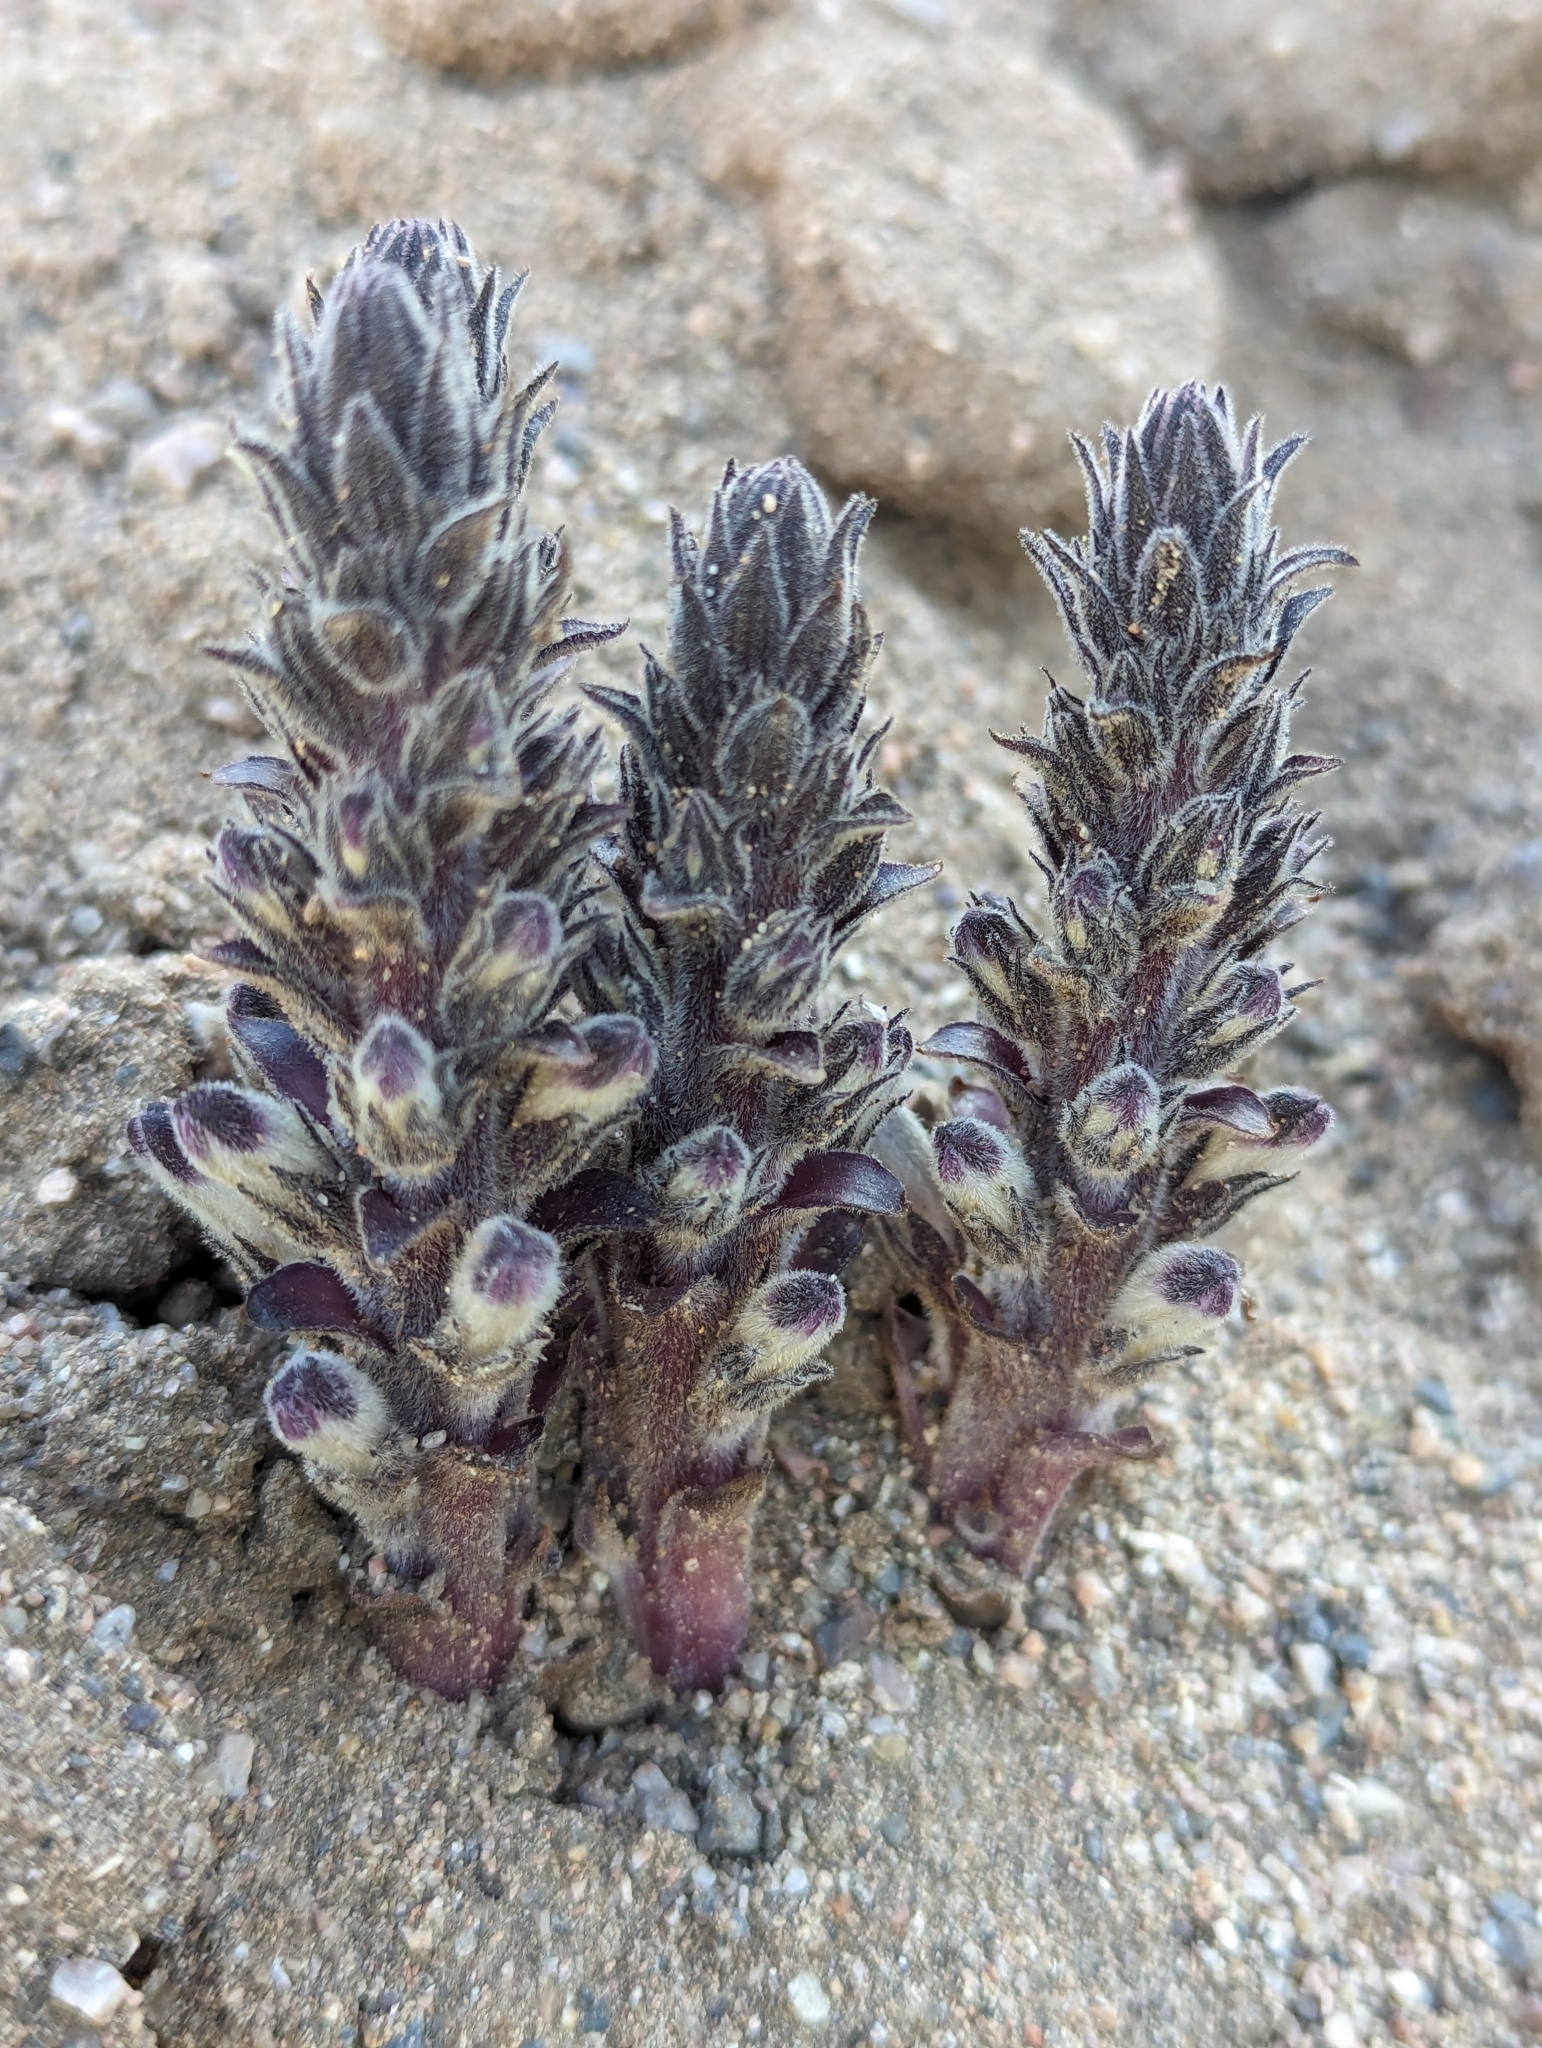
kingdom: Plantae
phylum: Tracheophyta
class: Magnoliopsida
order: Lamiales
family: Orobanchaceae
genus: Aphyllon
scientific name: Aphyllon cooperi
